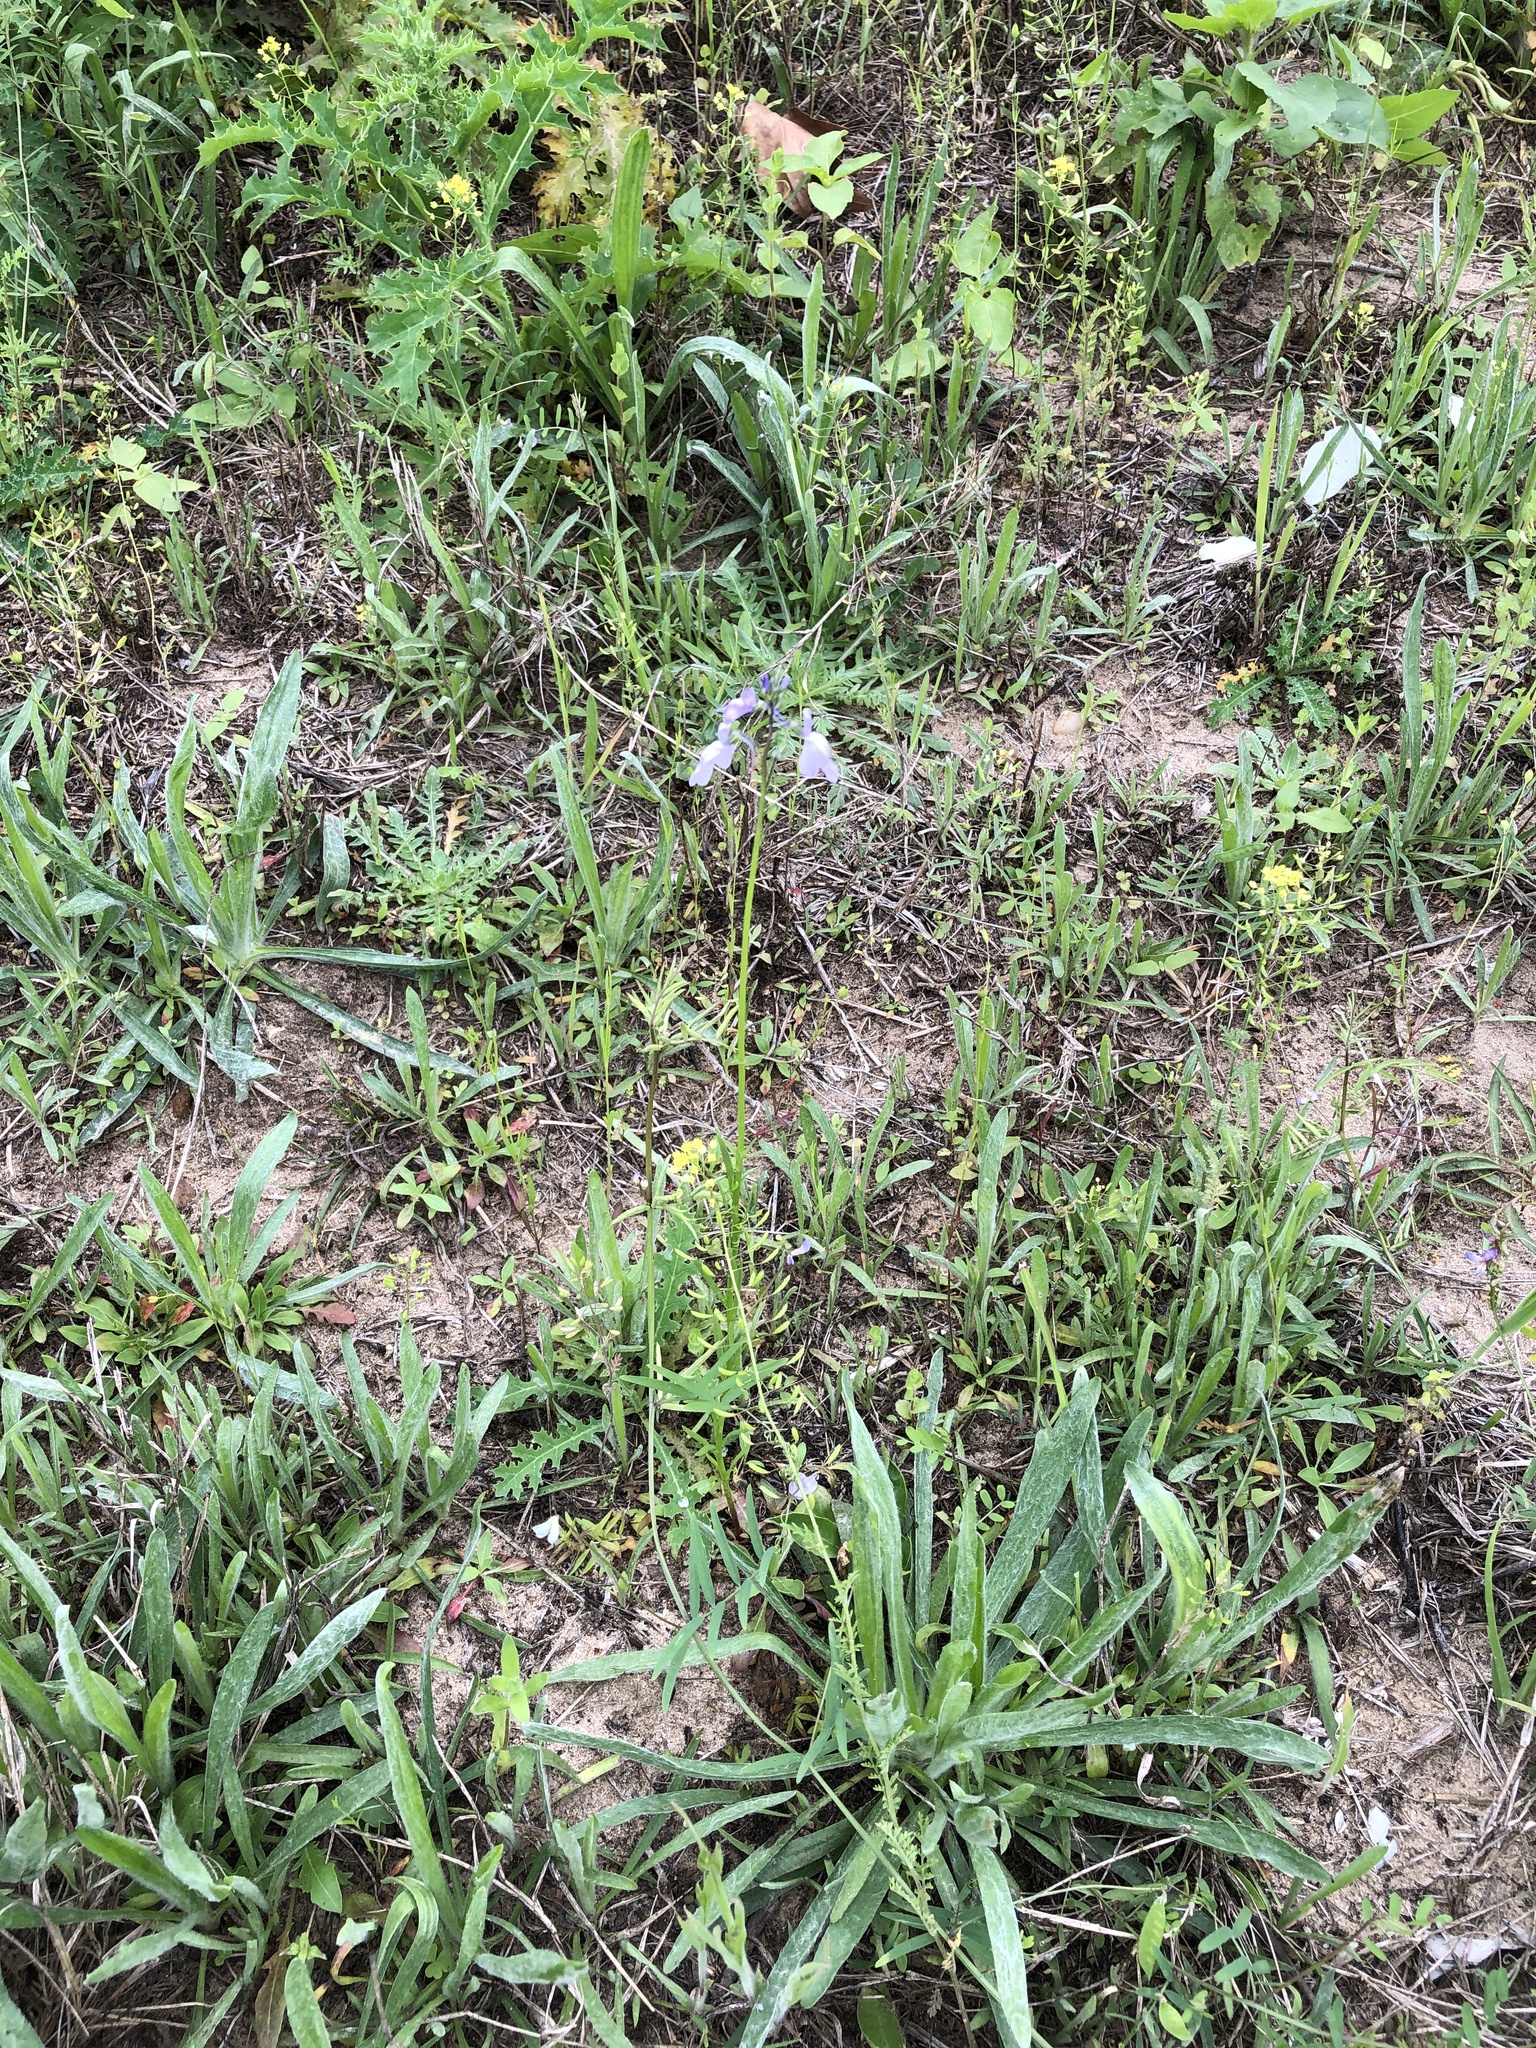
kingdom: Plantae
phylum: Tracheophyta
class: Magnoliopsida
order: Lamiales
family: Plantaginaceae
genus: Nuttallanthus
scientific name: Nuttallanthus texanus
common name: Texas toadflax
